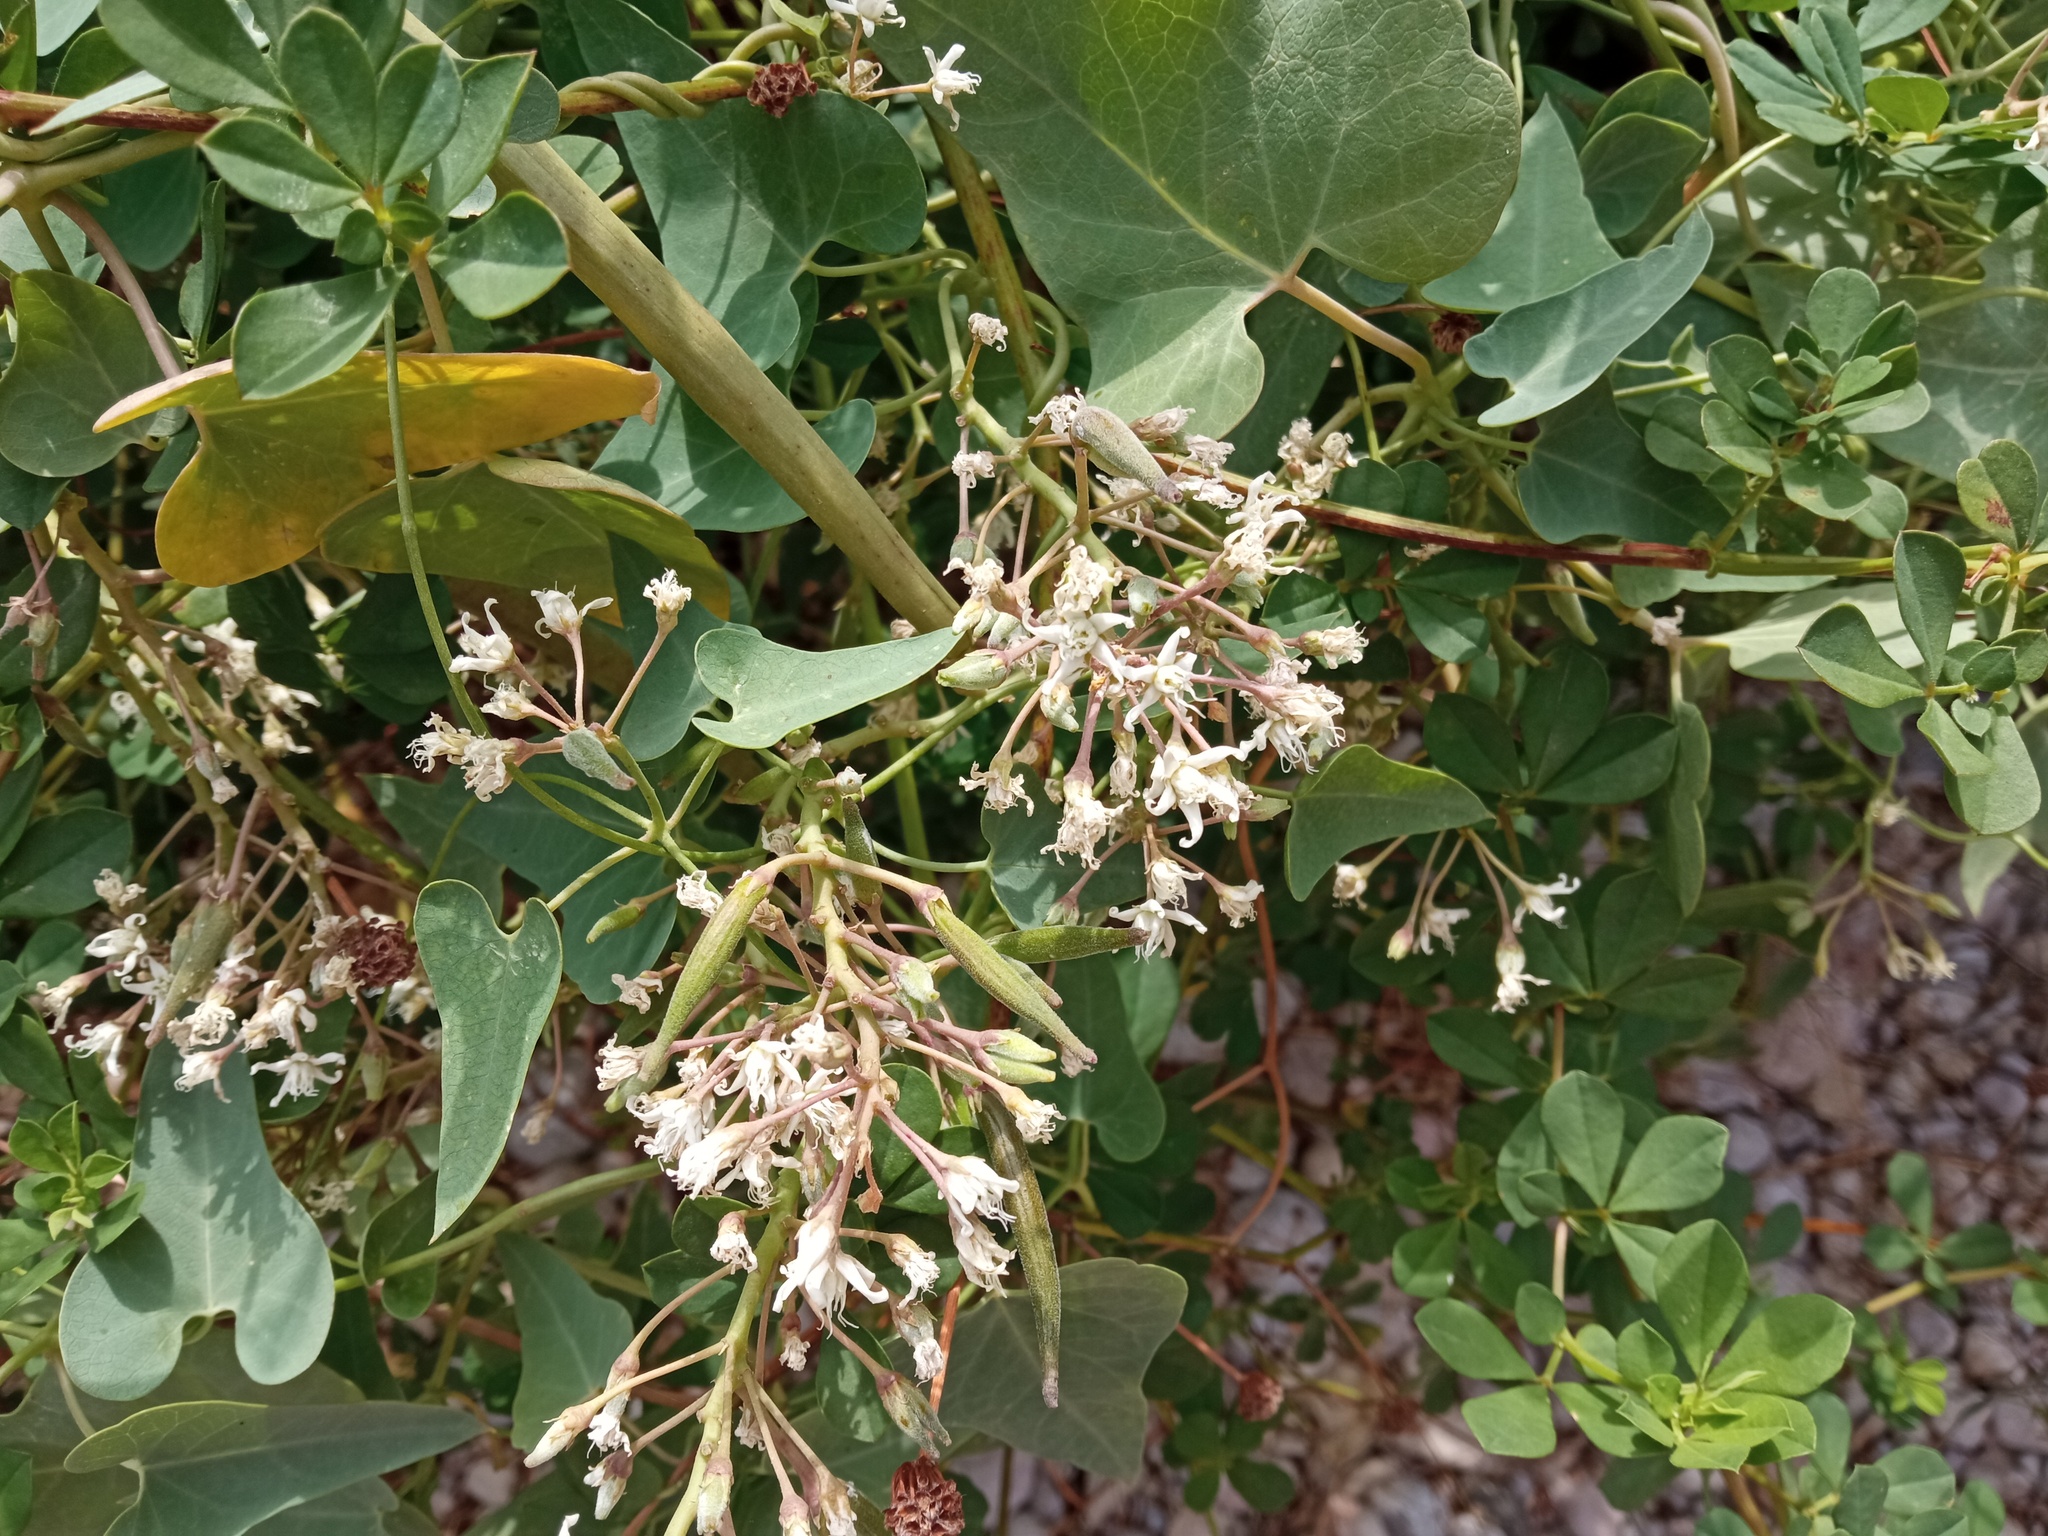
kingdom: Plantae
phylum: Tracheophyta
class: Magnoliopsida
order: Gentianales
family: Apocynaceae
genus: Cynanchum
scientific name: Cynanchum acutum
